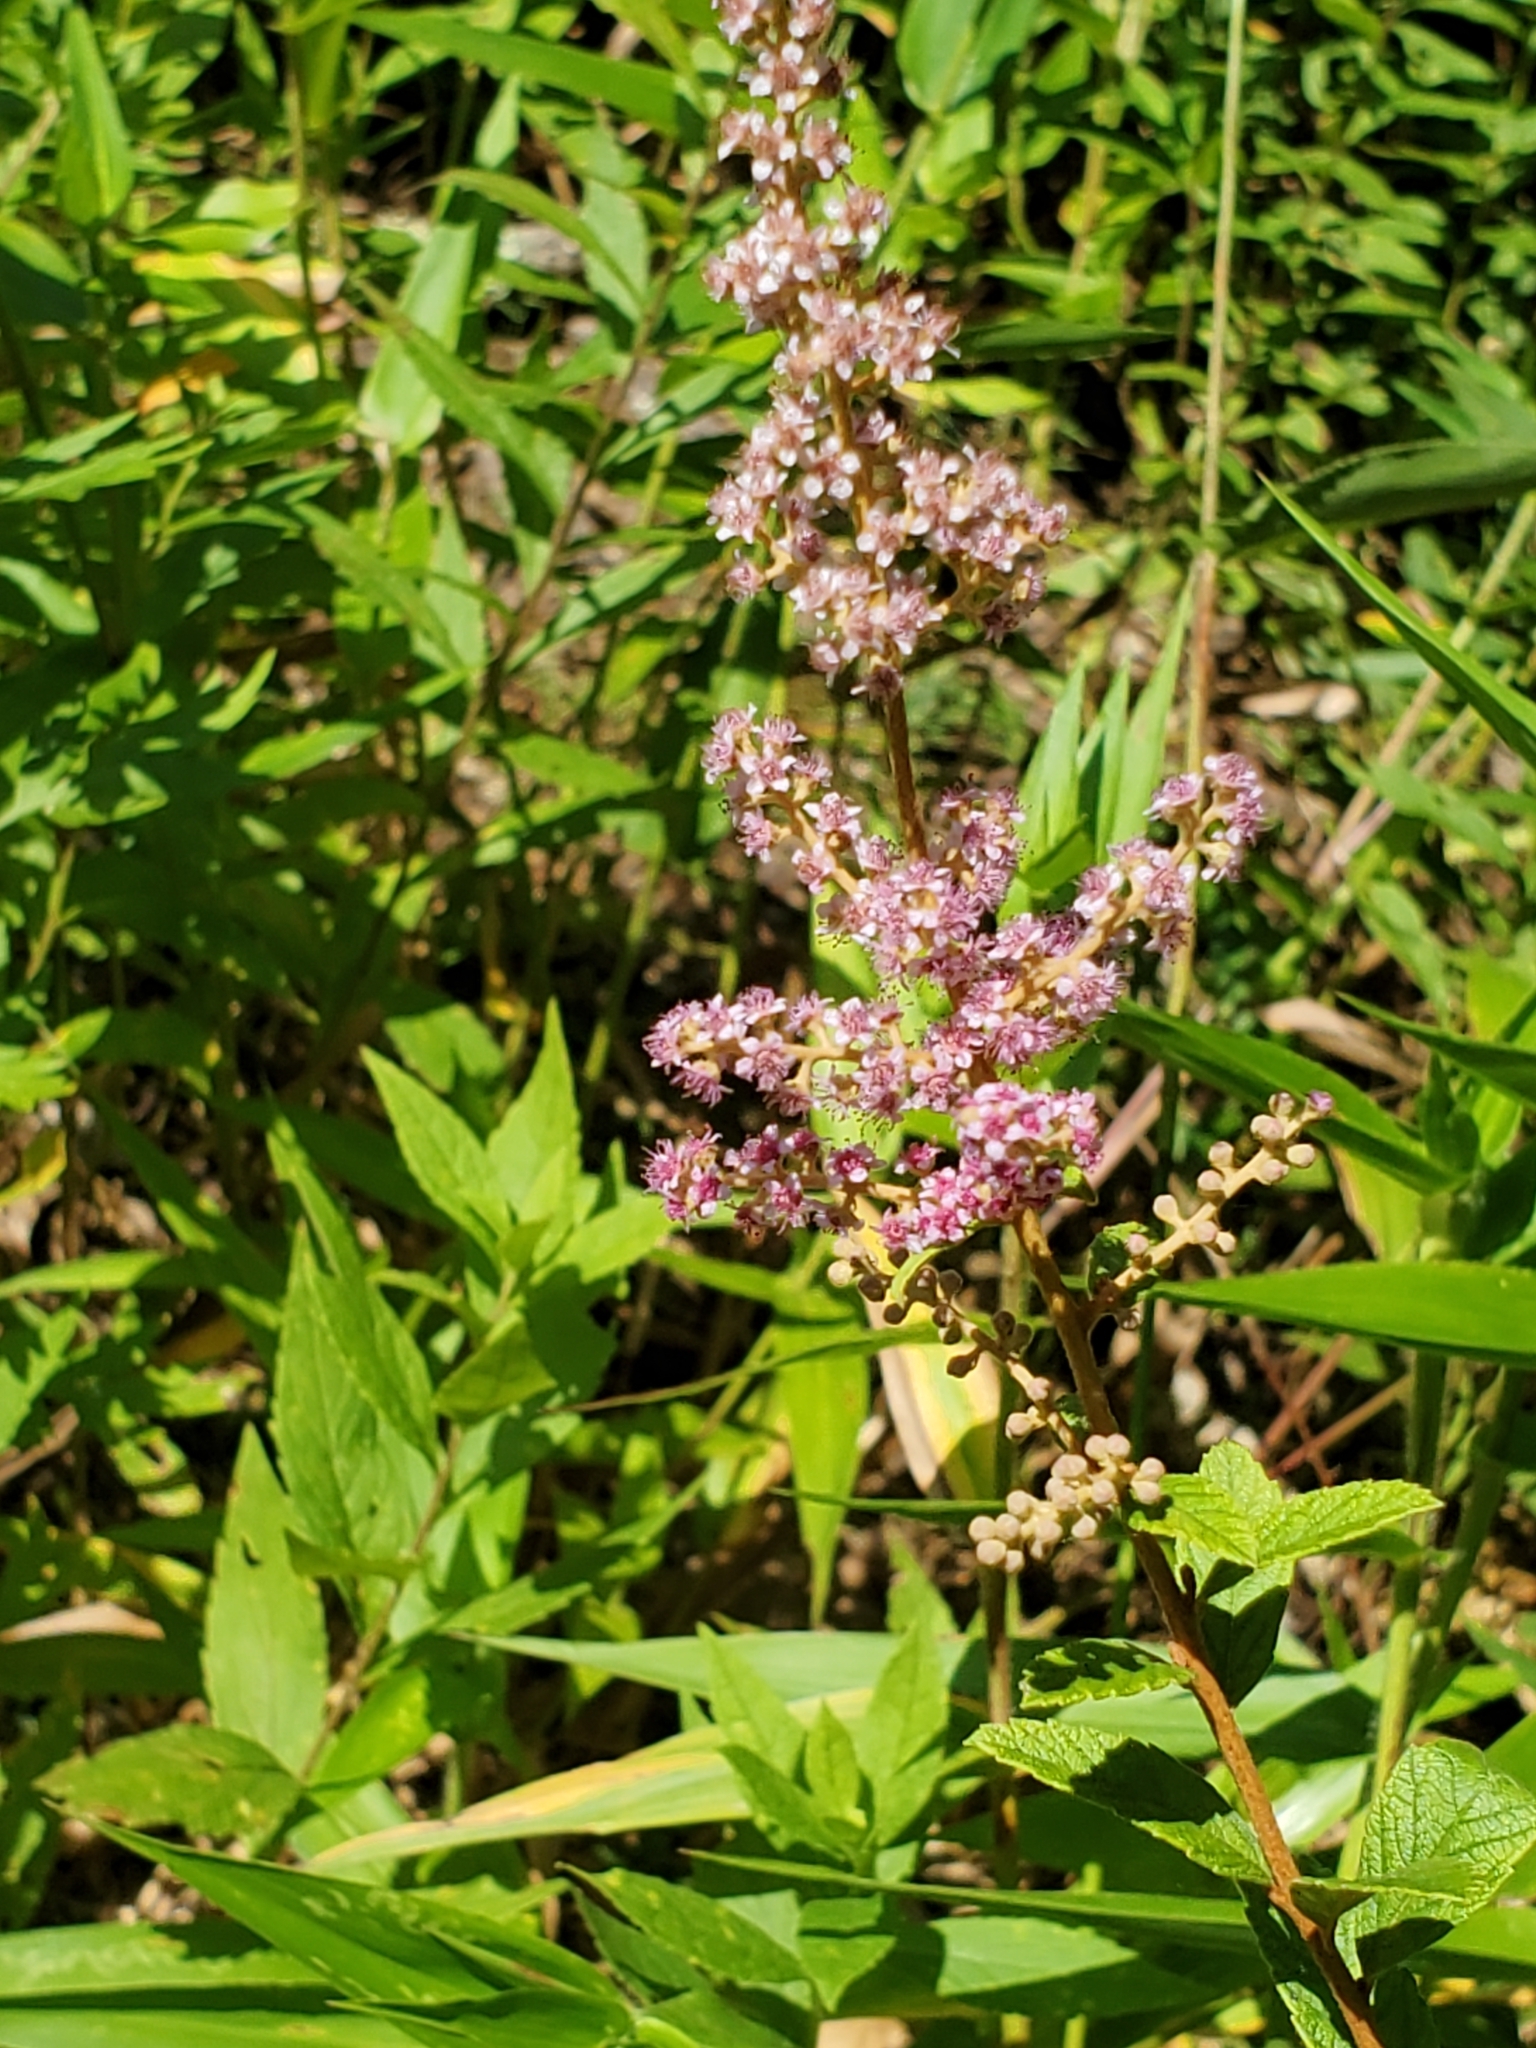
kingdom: Plantae
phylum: Tracheophyta
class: Magnoliopsida
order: Rosales
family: Rosaceae
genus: Spiraea
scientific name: Spiraea tomentosa
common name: Hardhack
